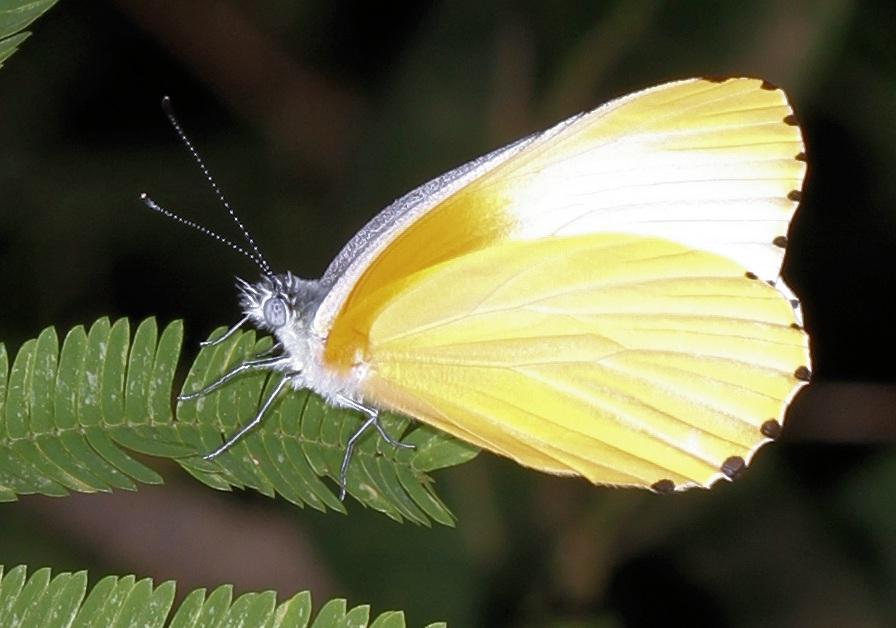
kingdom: Animalia
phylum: Arthropoda
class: Insecta
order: Lepidoptera
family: Pieridae
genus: Mylothris
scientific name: Mylothris agathina
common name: Eastern dotted border
